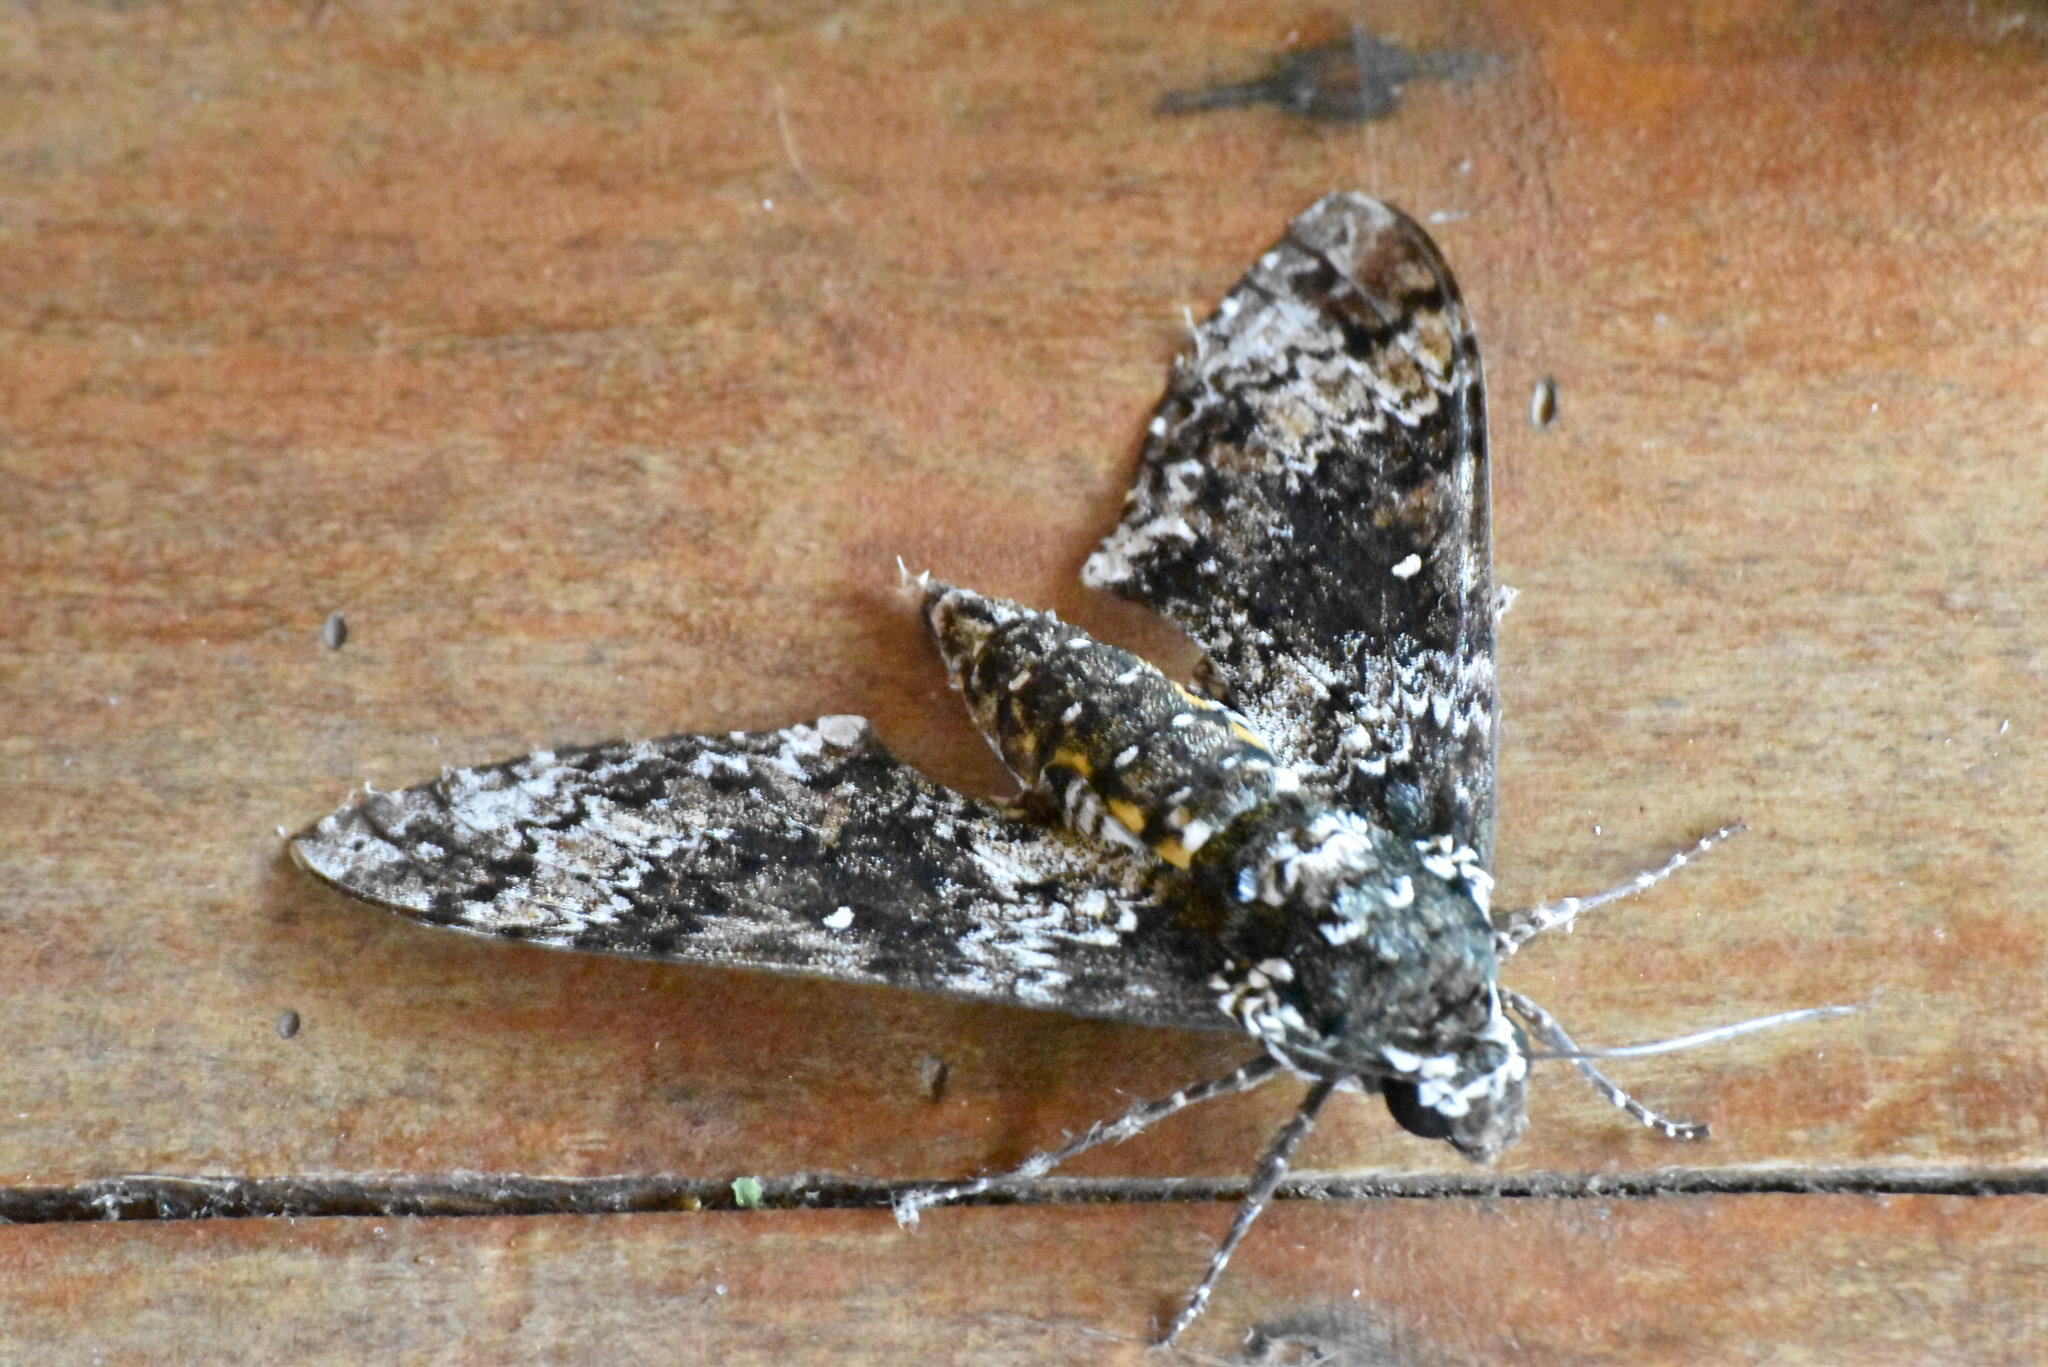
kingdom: Animalia
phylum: Arthropoda
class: Insecta
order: Lepidoptera
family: Sphingidae
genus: Manduca
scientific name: Manduca rustica
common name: Rustic sphinx
